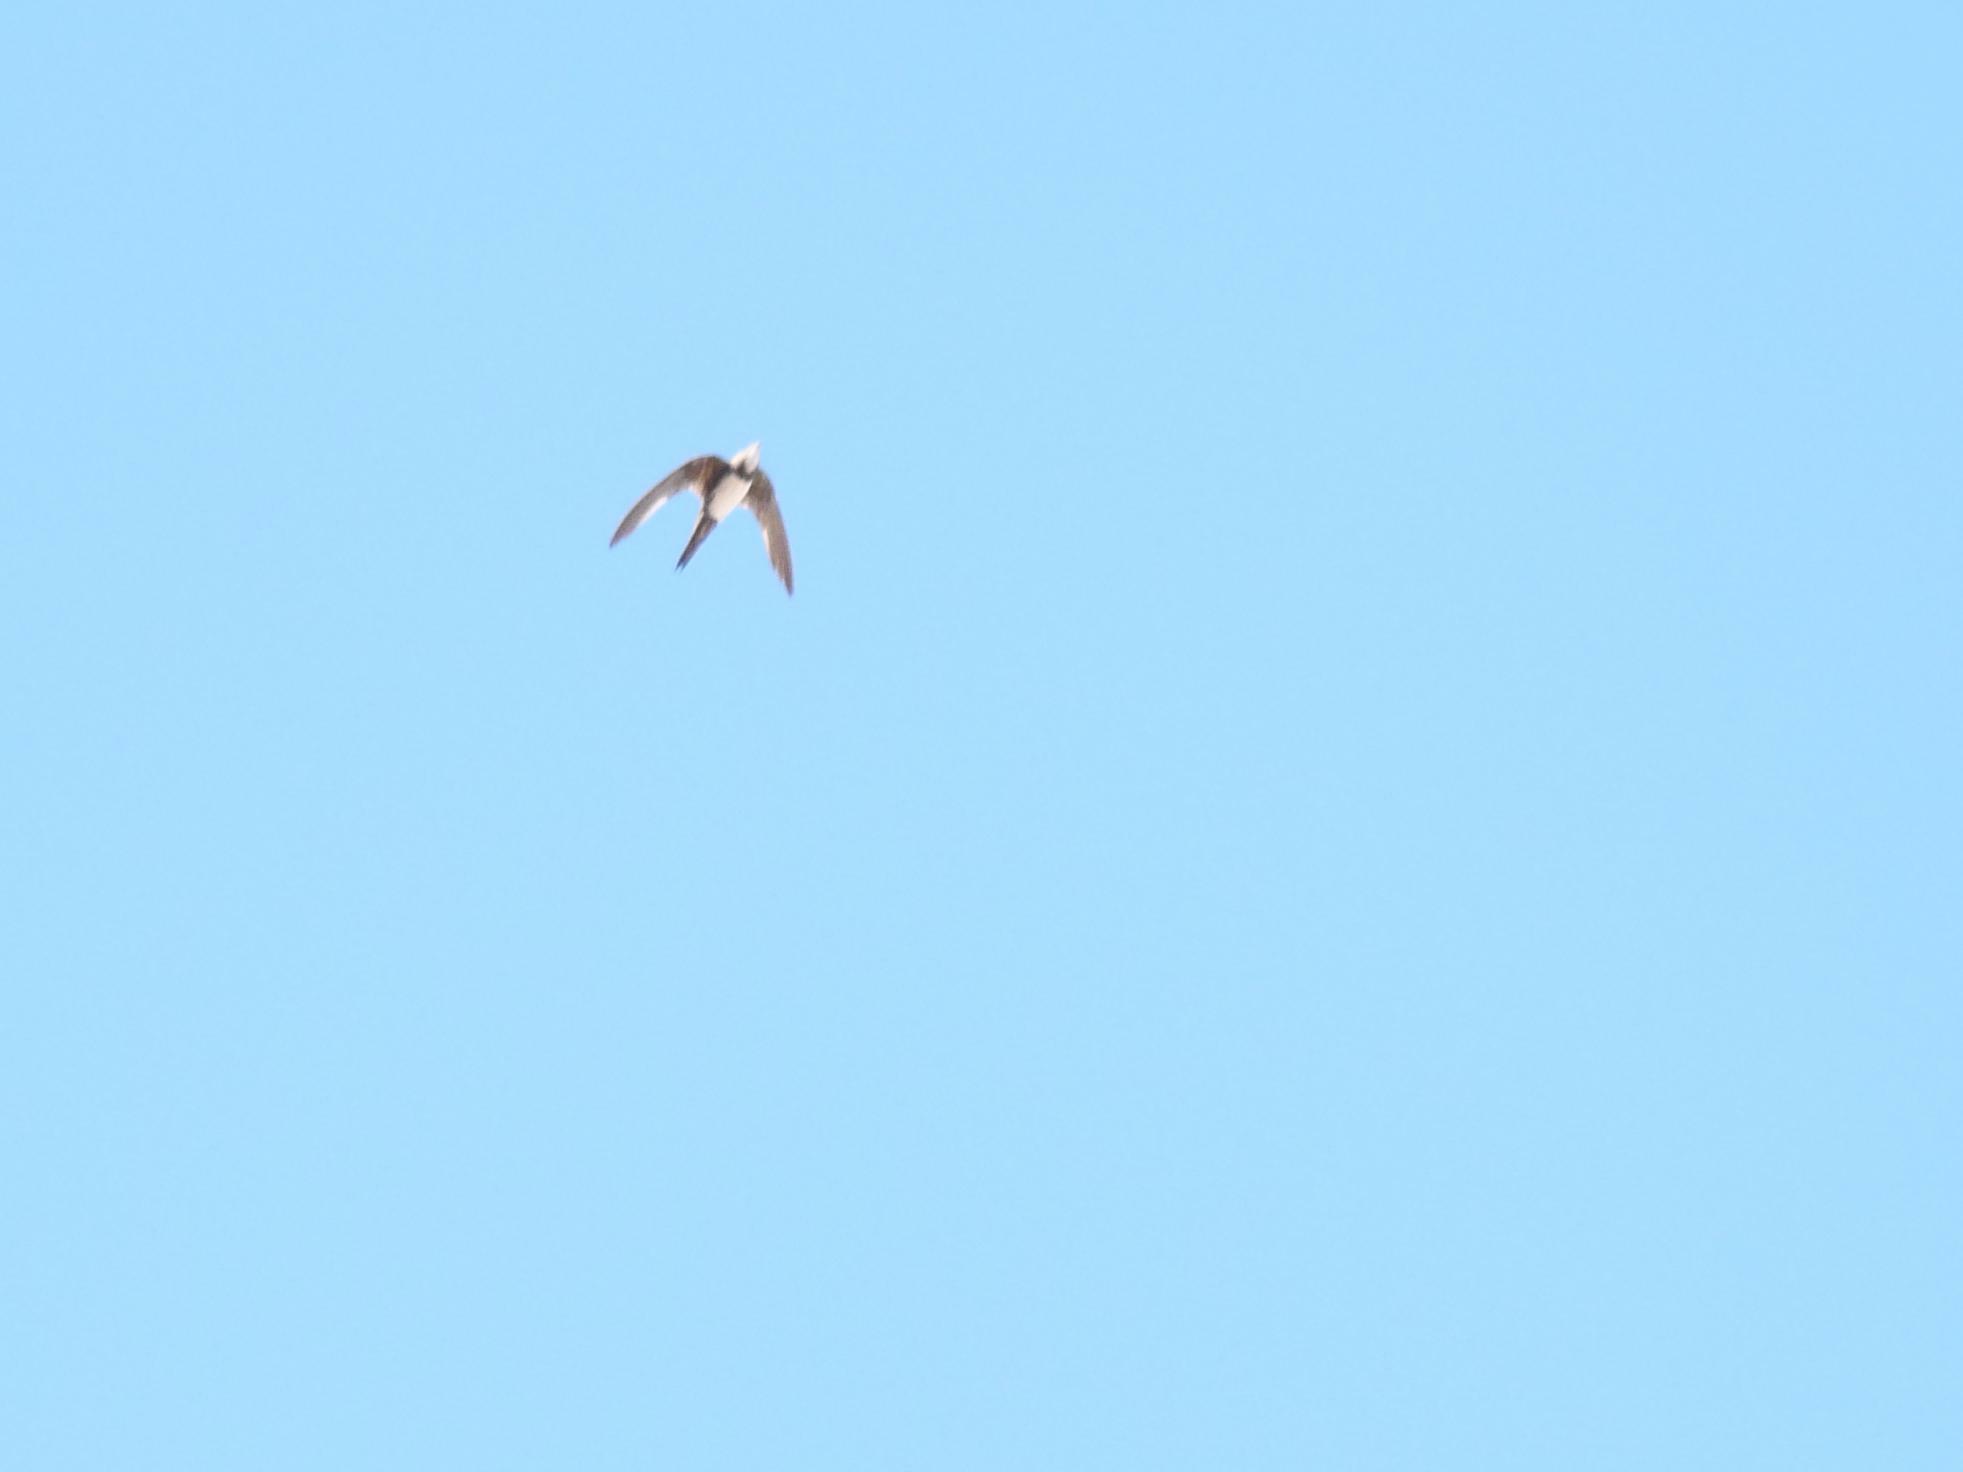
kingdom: Animalia
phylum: Chordata
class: Aves
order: Apodiformes
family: Apodidae
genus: Tachymarptis
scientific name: Tachymarptis melba
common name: Alpine swift
